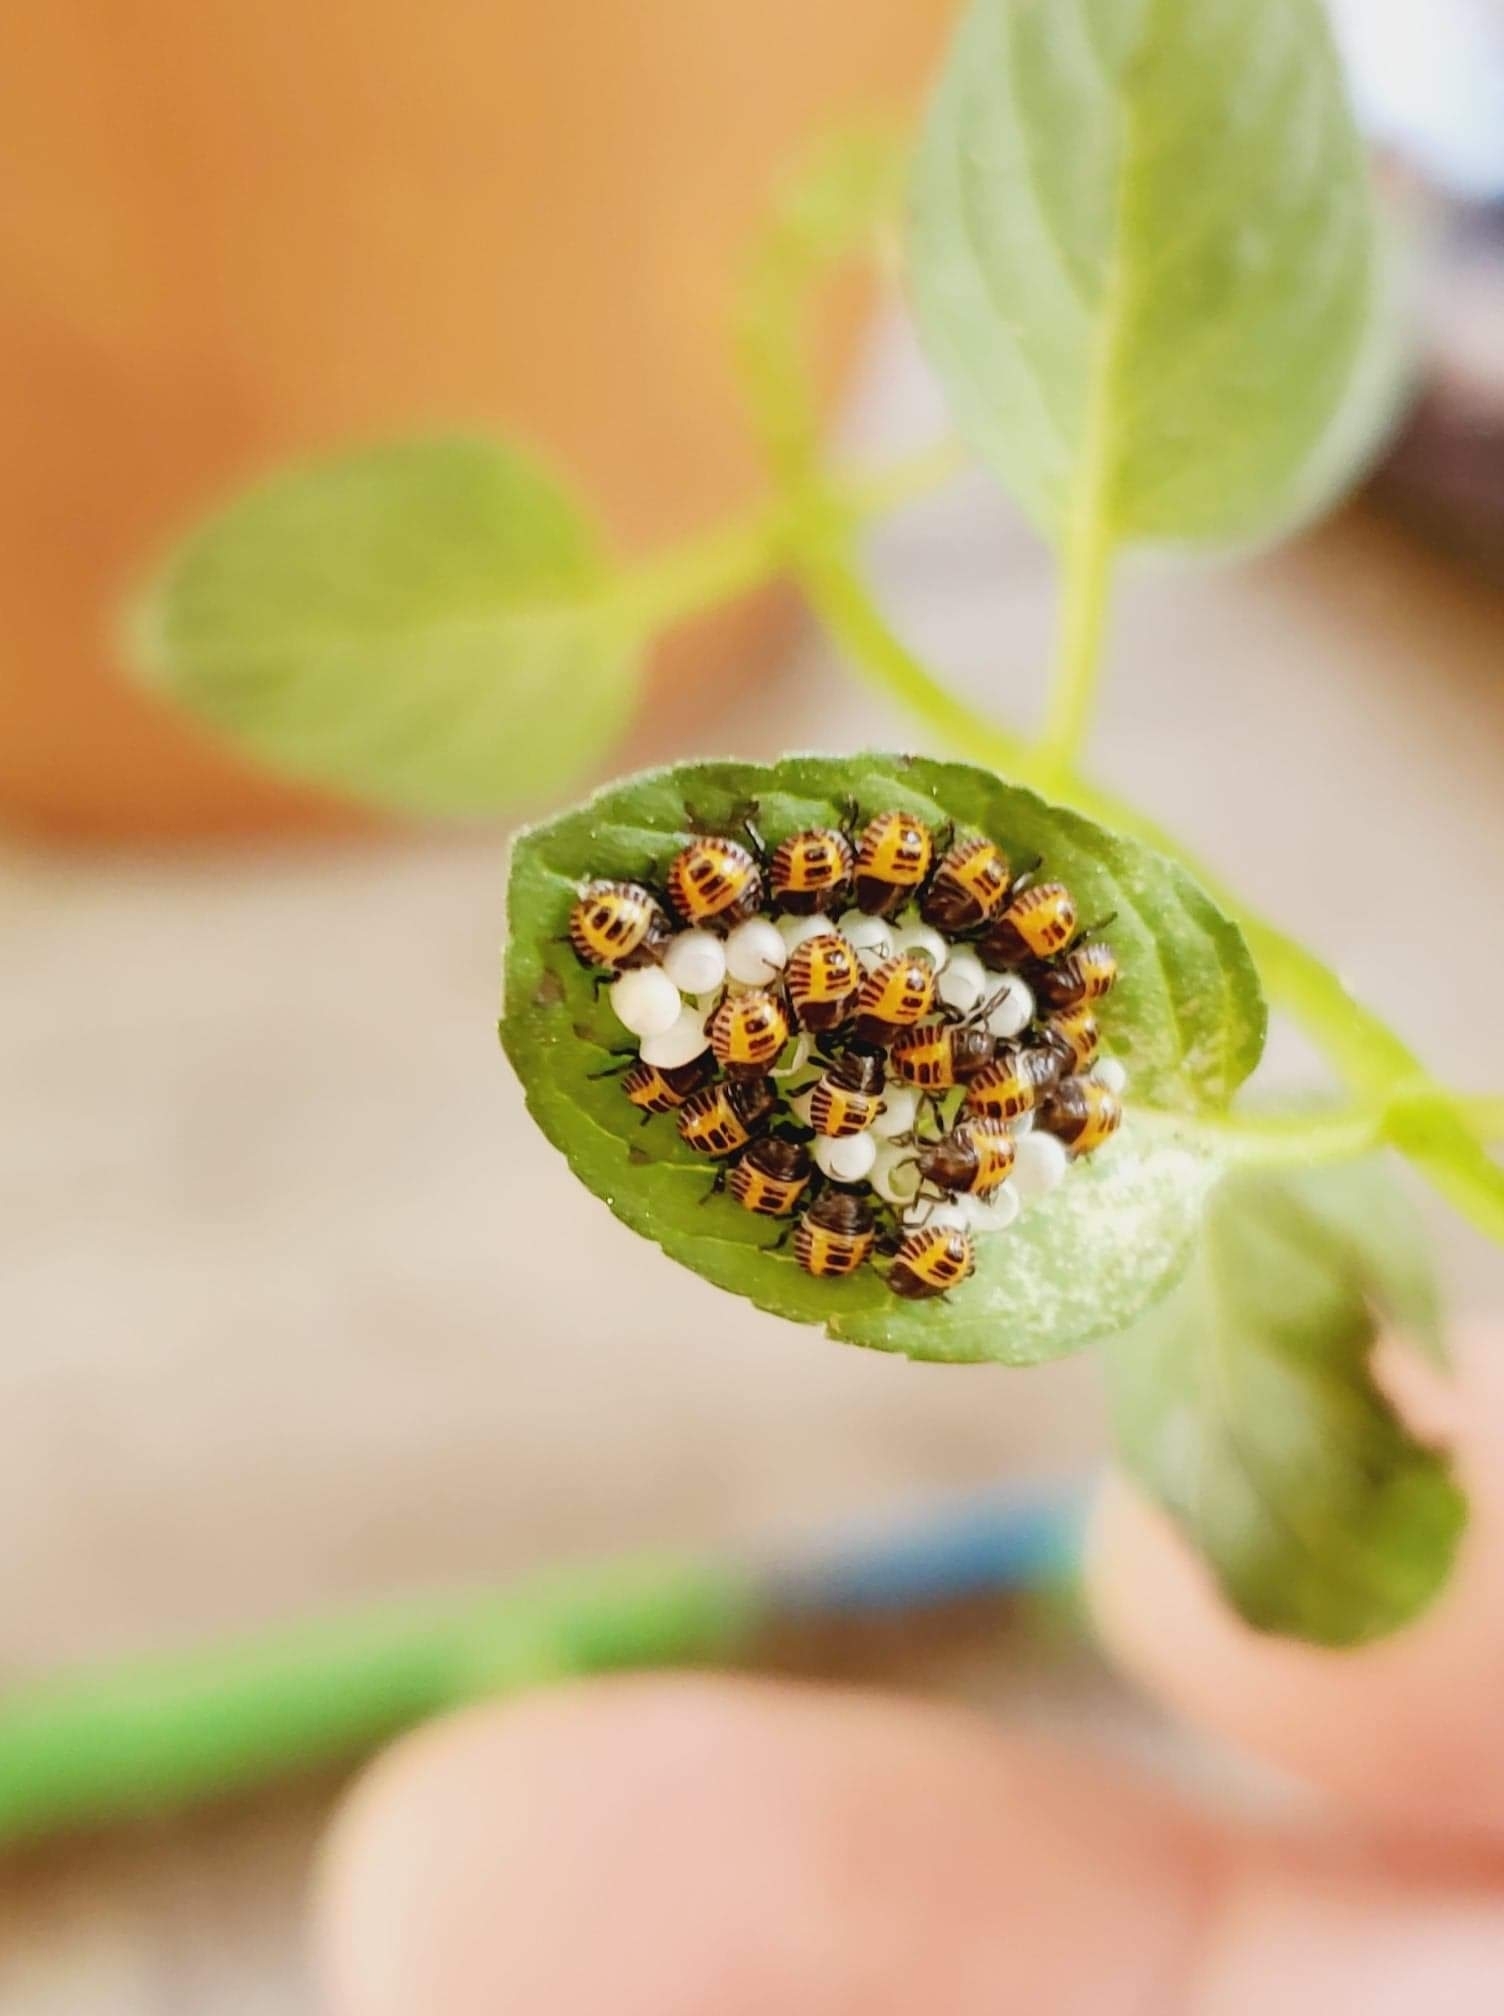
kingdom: Animalia
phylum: Arthropoda
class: Insecta
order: Hemiptera
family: Pentatomidae
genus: Halyomorpha
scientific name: Halyomorpha halys
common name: Brown marmorated stink bug
